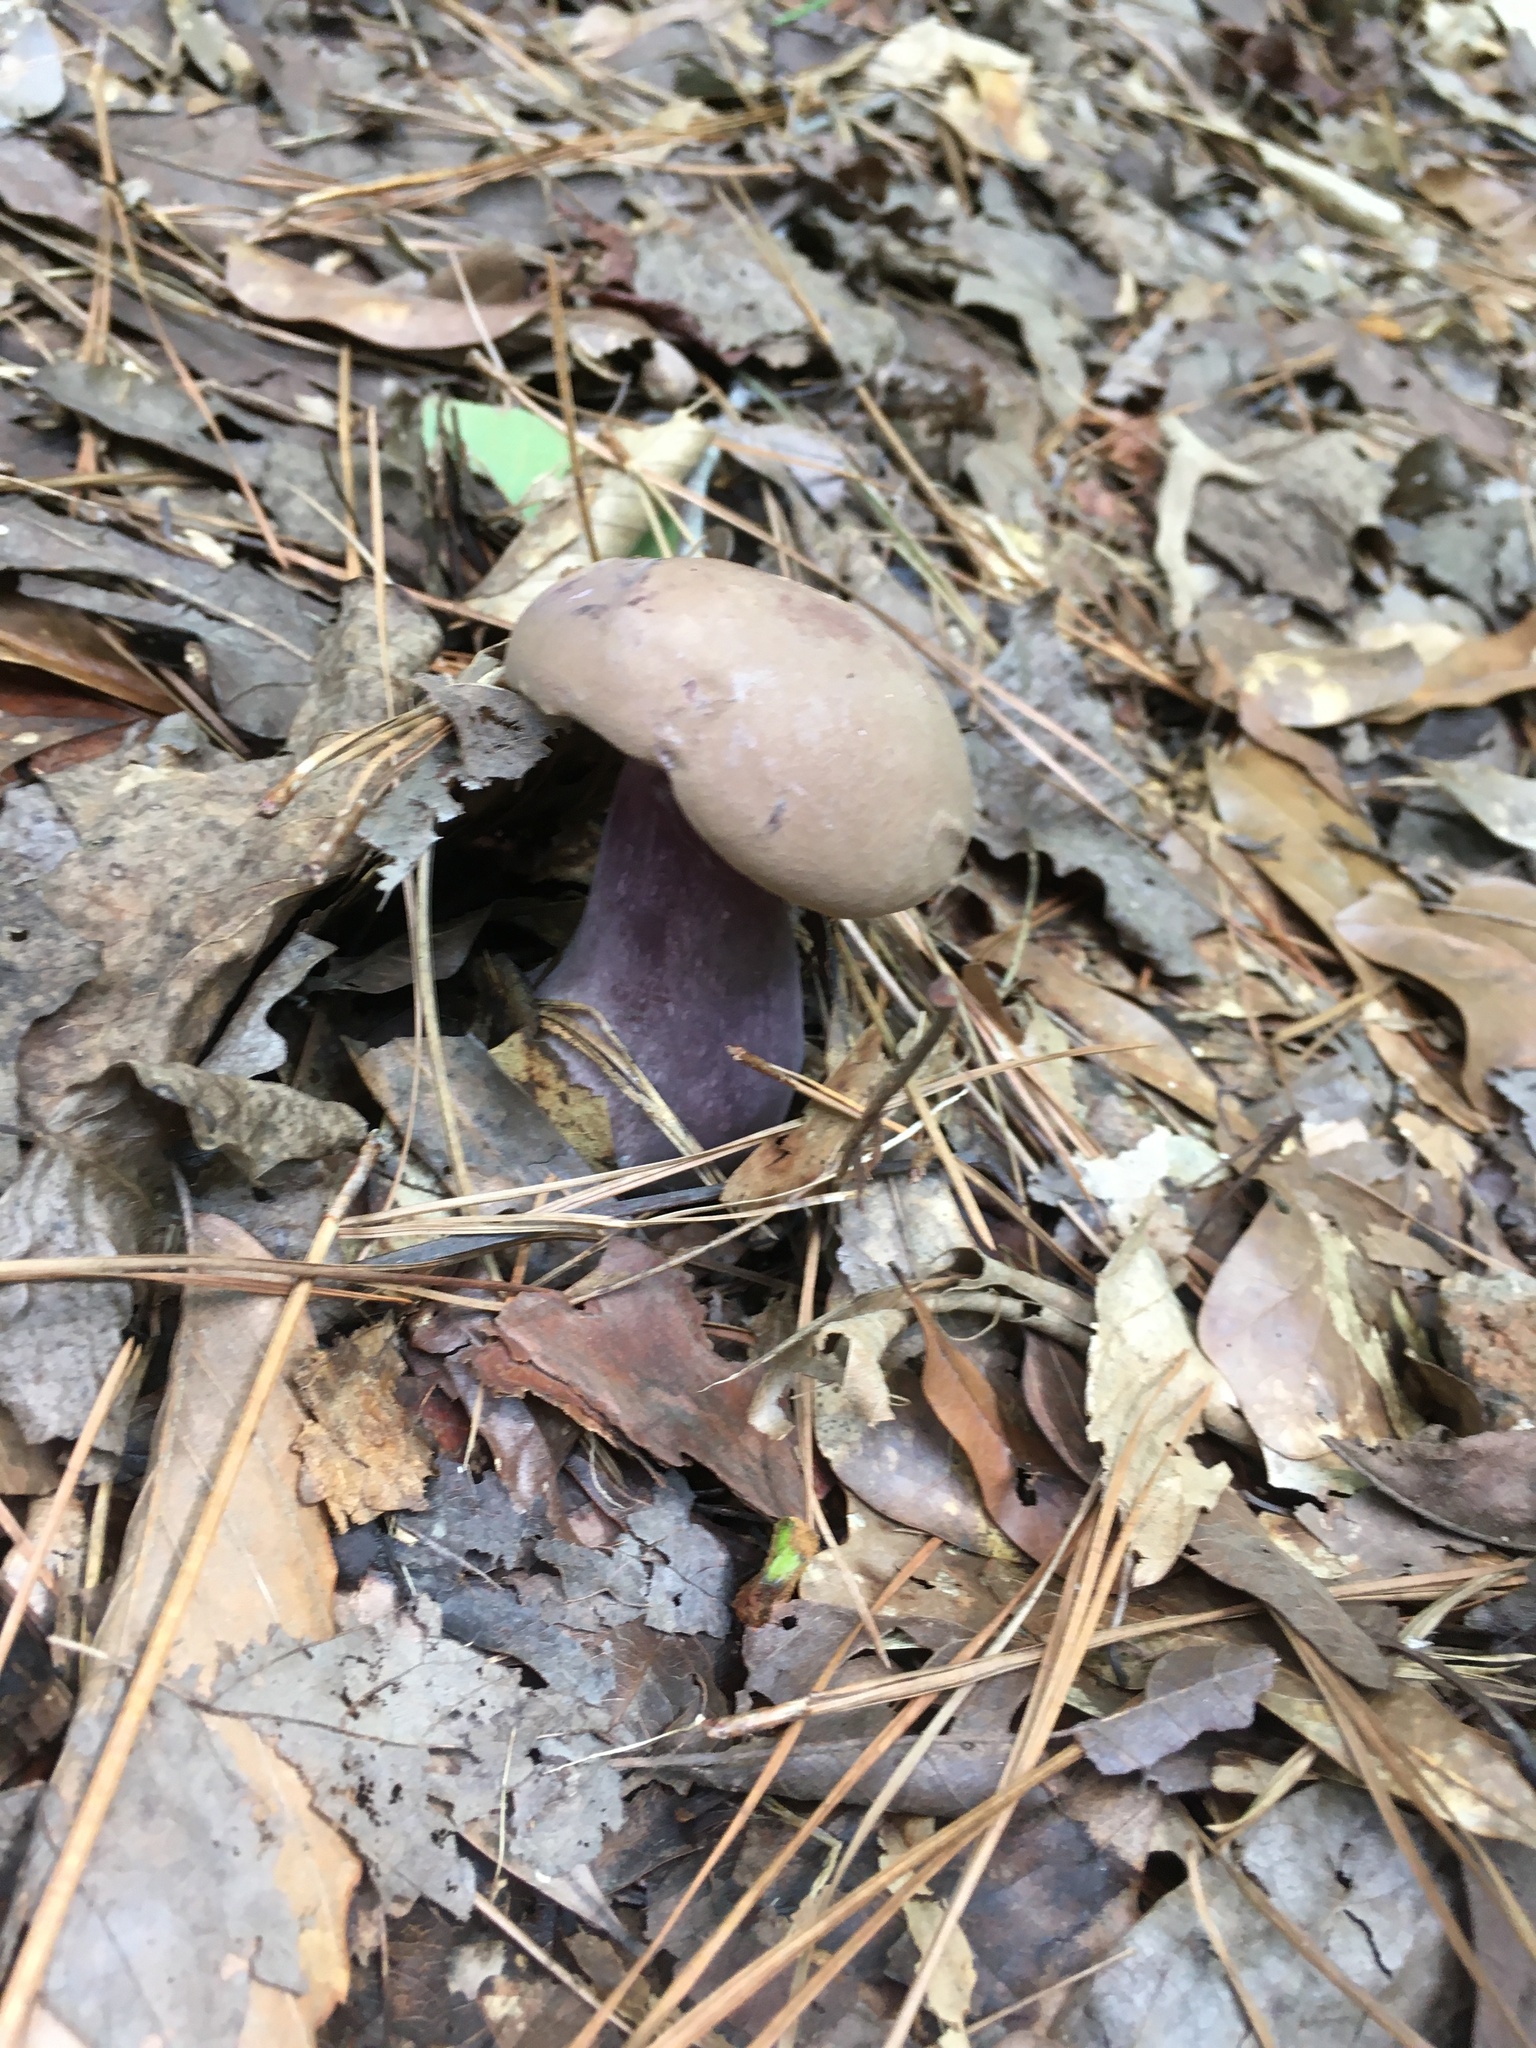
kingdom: Fungi
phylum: Basidiomycota
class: Agaricomycetes
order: Boletales
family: Boletaceae
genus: Tylopilus
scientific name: Tylopilus plumbeoviolaceus
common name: Violet gray bolete
